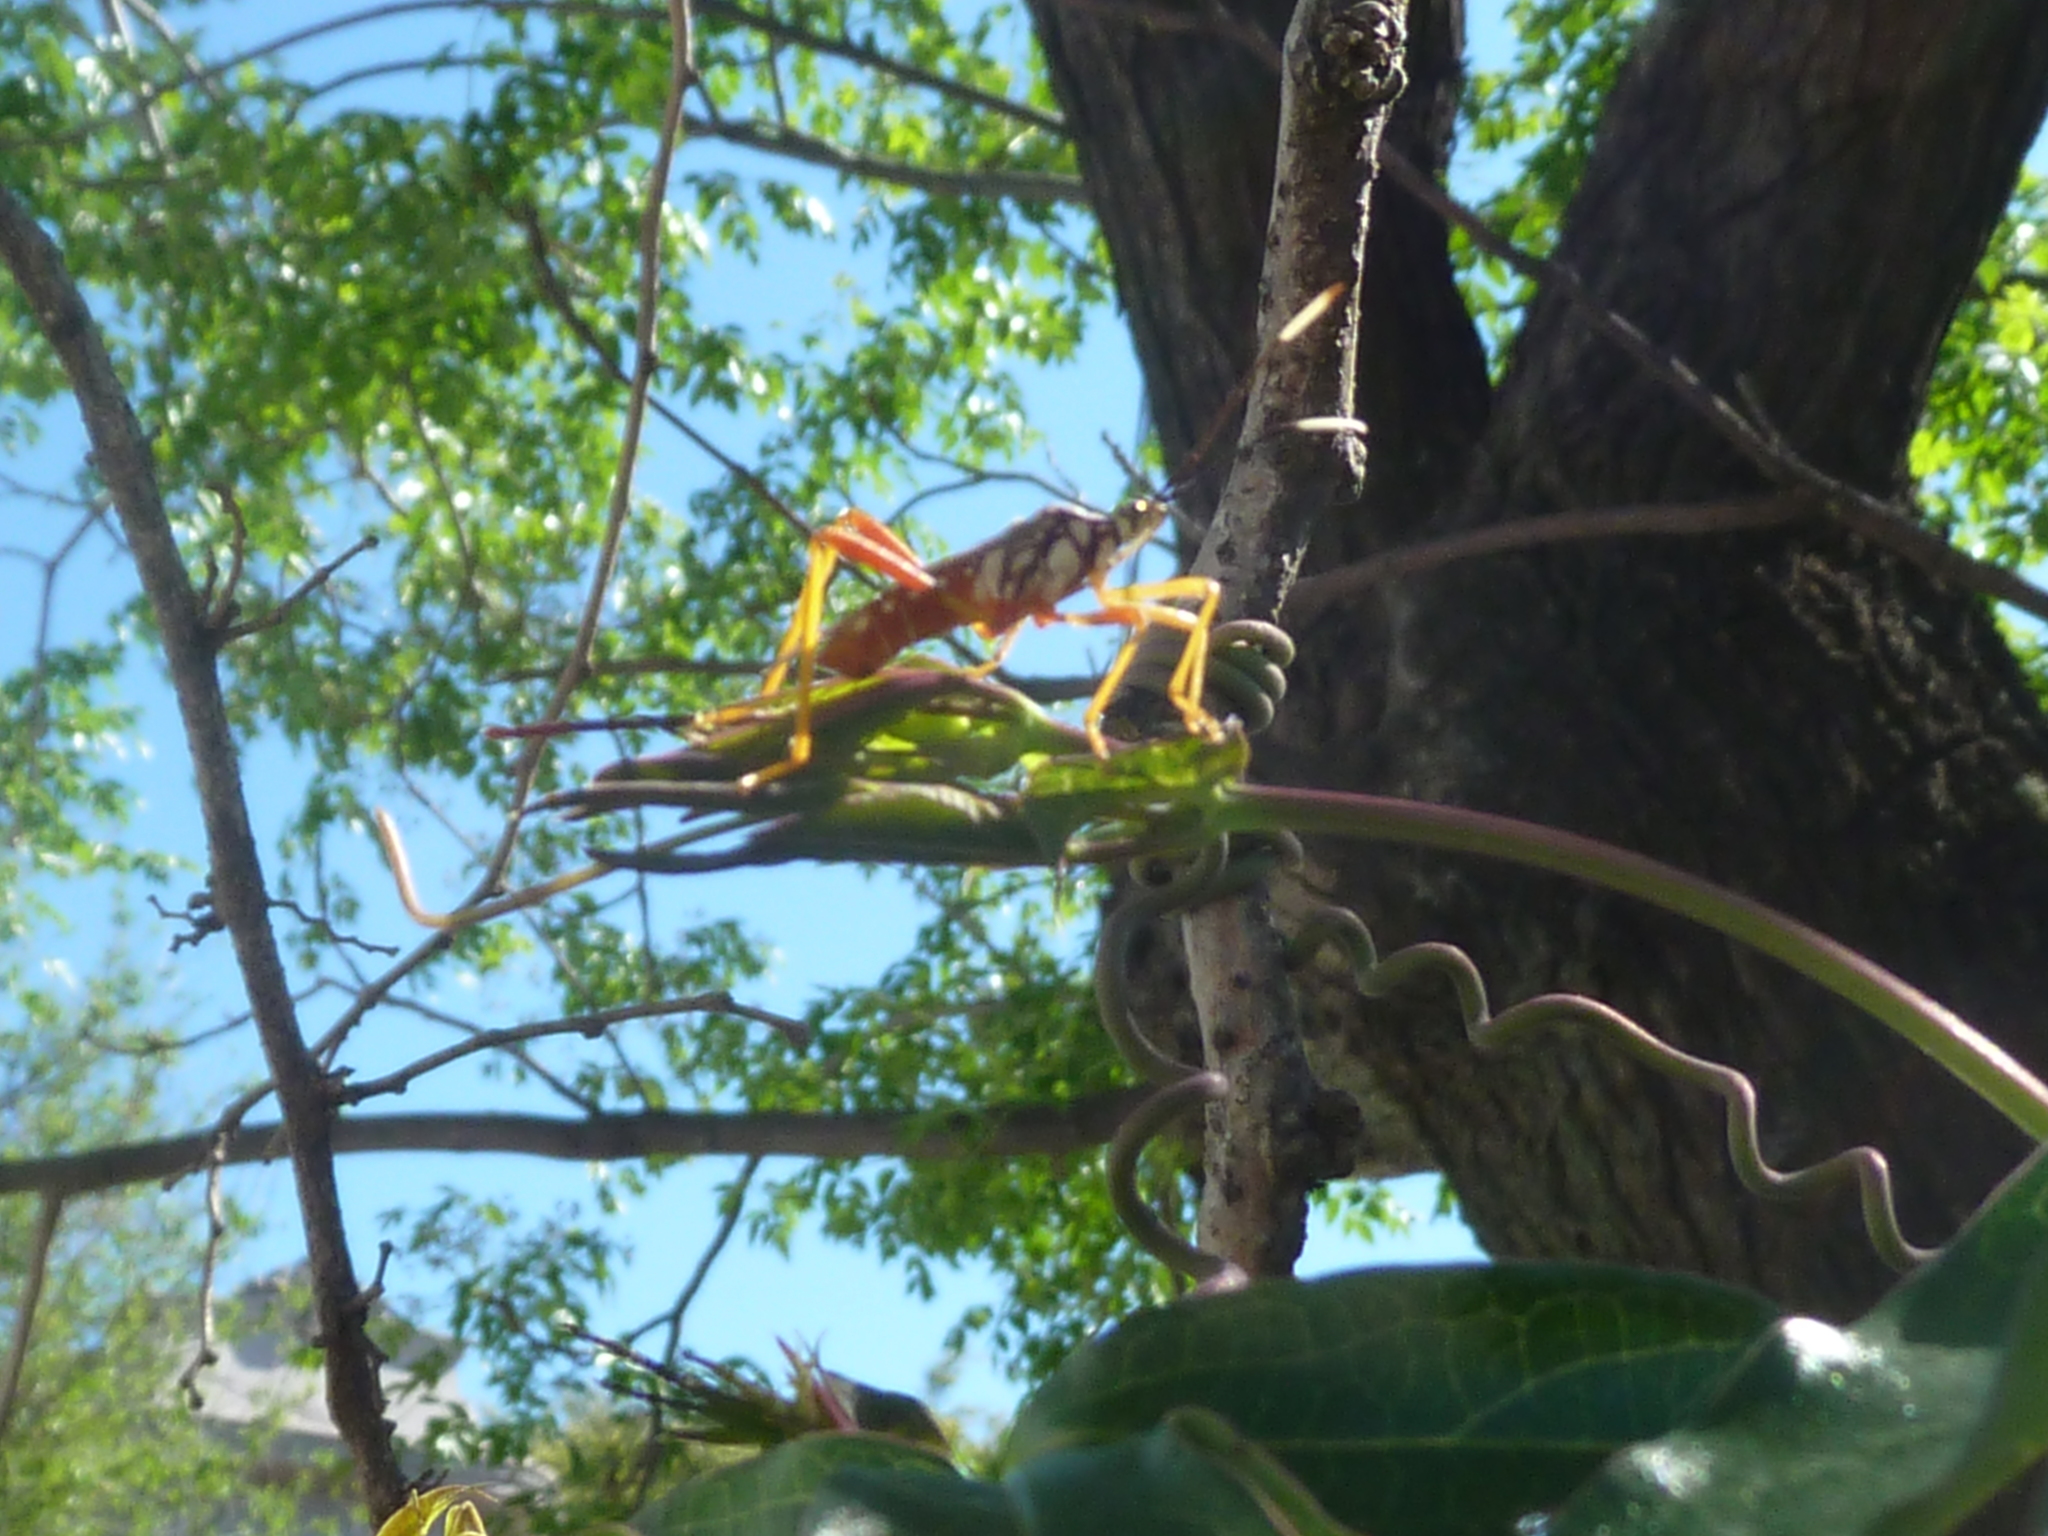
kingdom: Animalia
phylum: Arthropoda
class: Insecta
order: Hemiptera
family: Coreidae
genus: Holhymenia
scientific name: Holhymenia histrio
